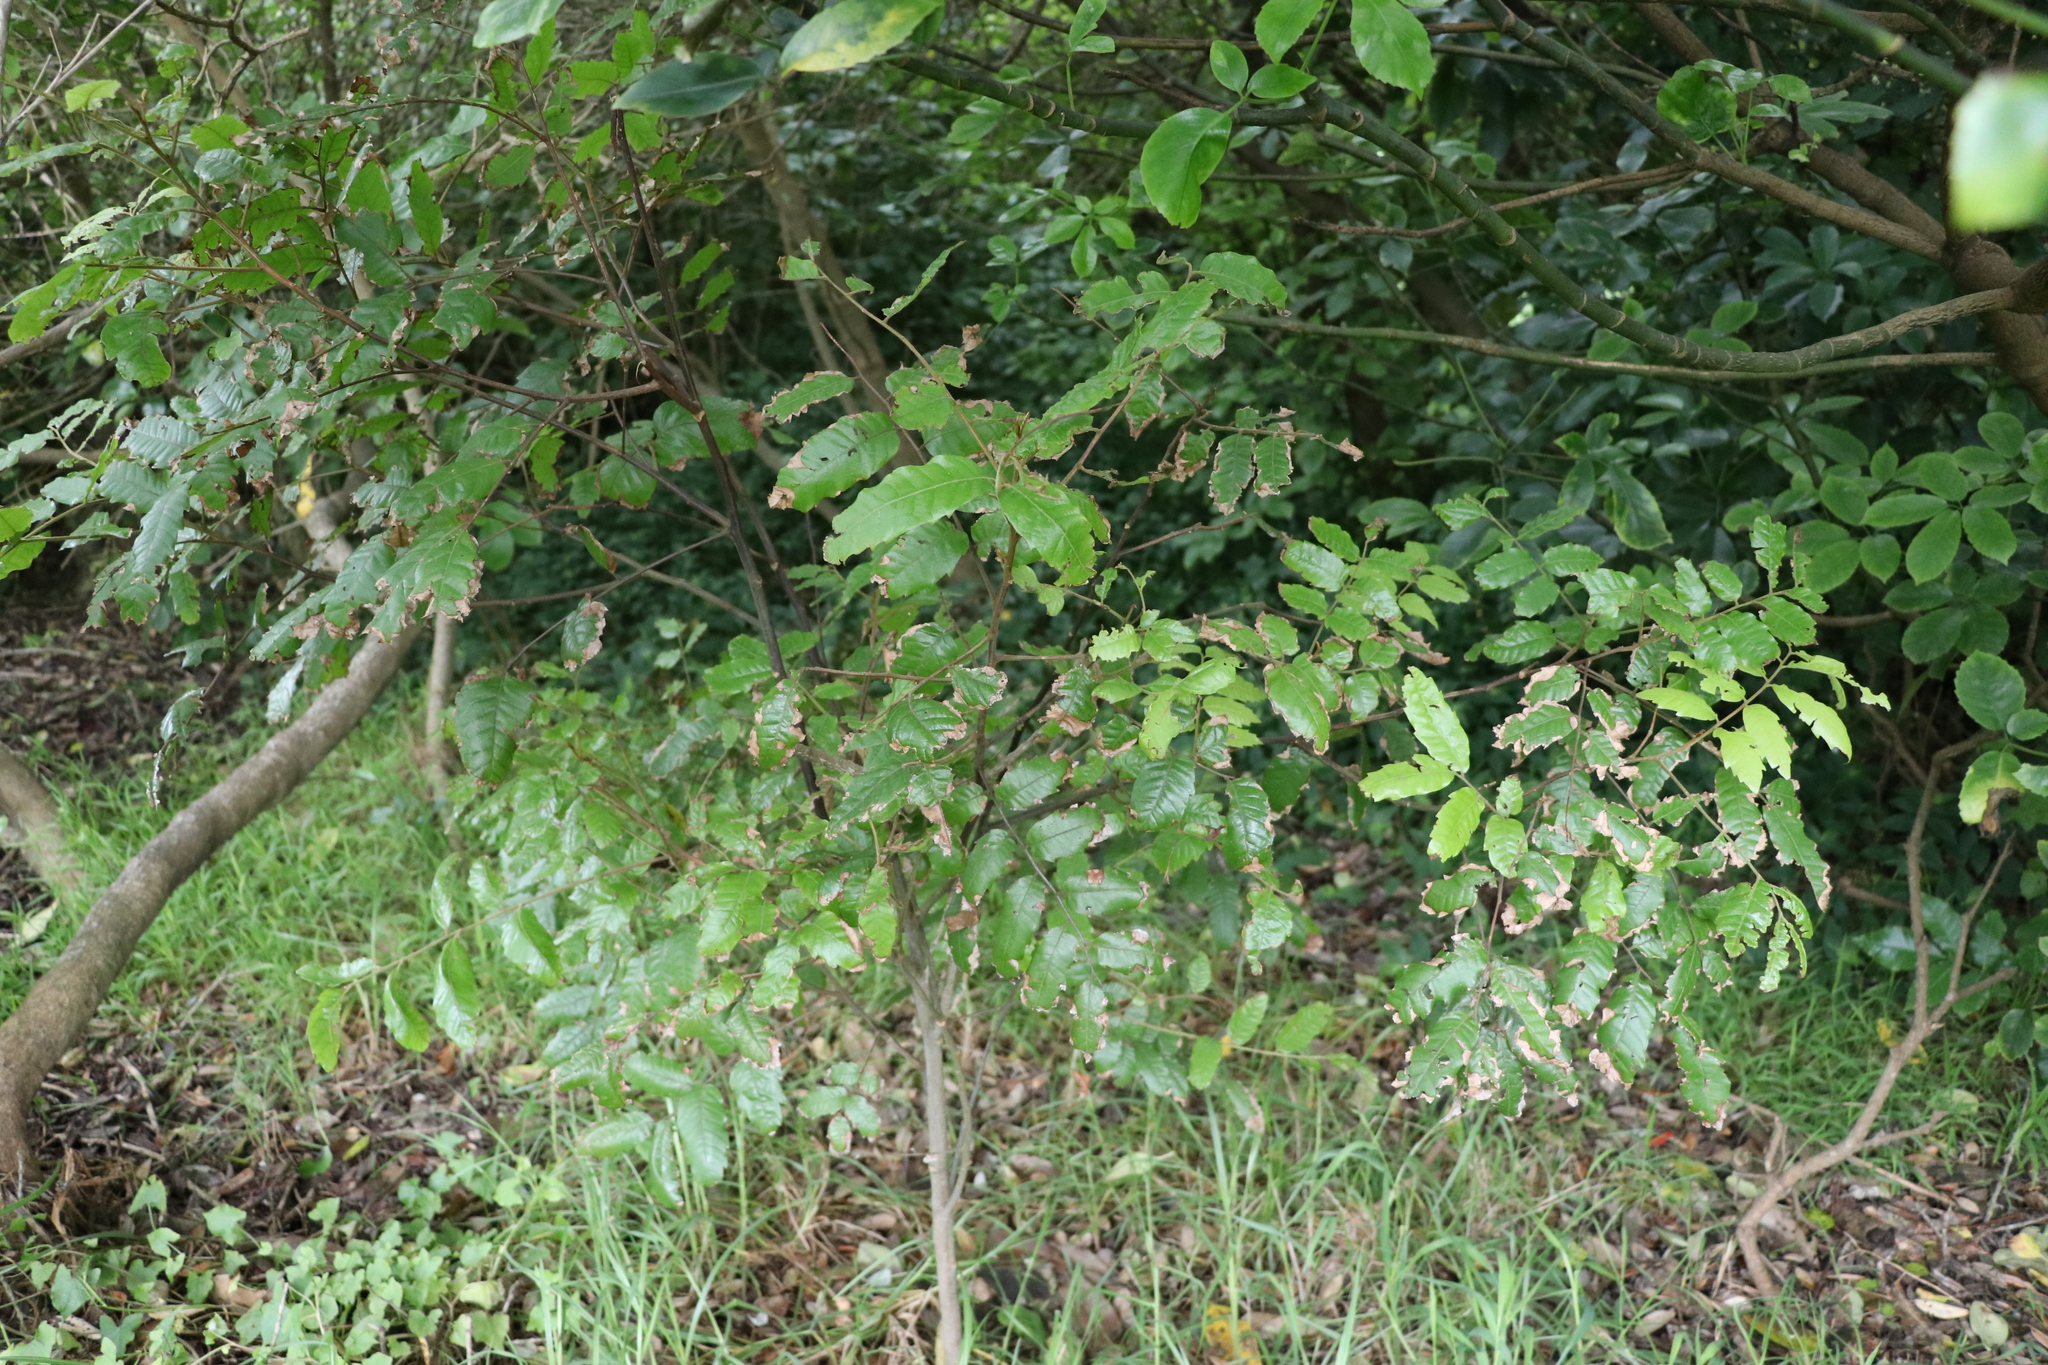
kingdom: Plantae
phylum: Tracheophyta
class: Magnoliopsida
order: Sapindales
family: Sapindaceae
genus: Alectryon
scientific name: Alectryon excelsus
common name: Three kings titoki
